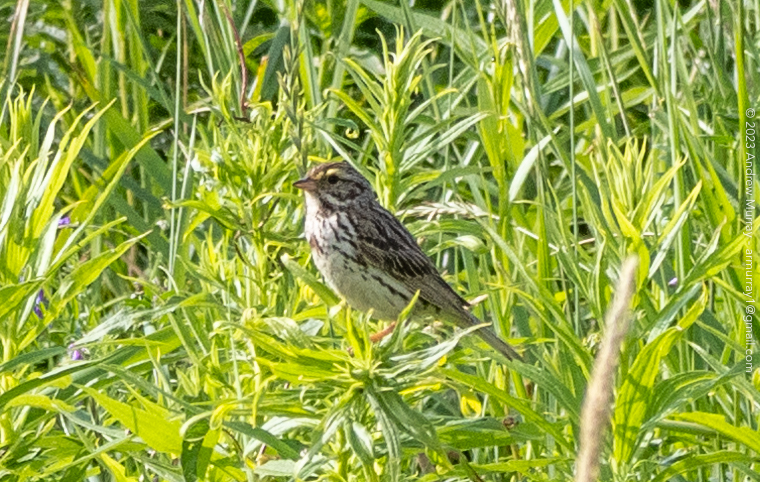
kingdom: Animalia
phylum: Chordata
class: Aves
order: Passeriformes
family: Passerellidae
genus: Passerculus
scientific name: Passerculus sandwichensis
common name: Savannah sparrow
